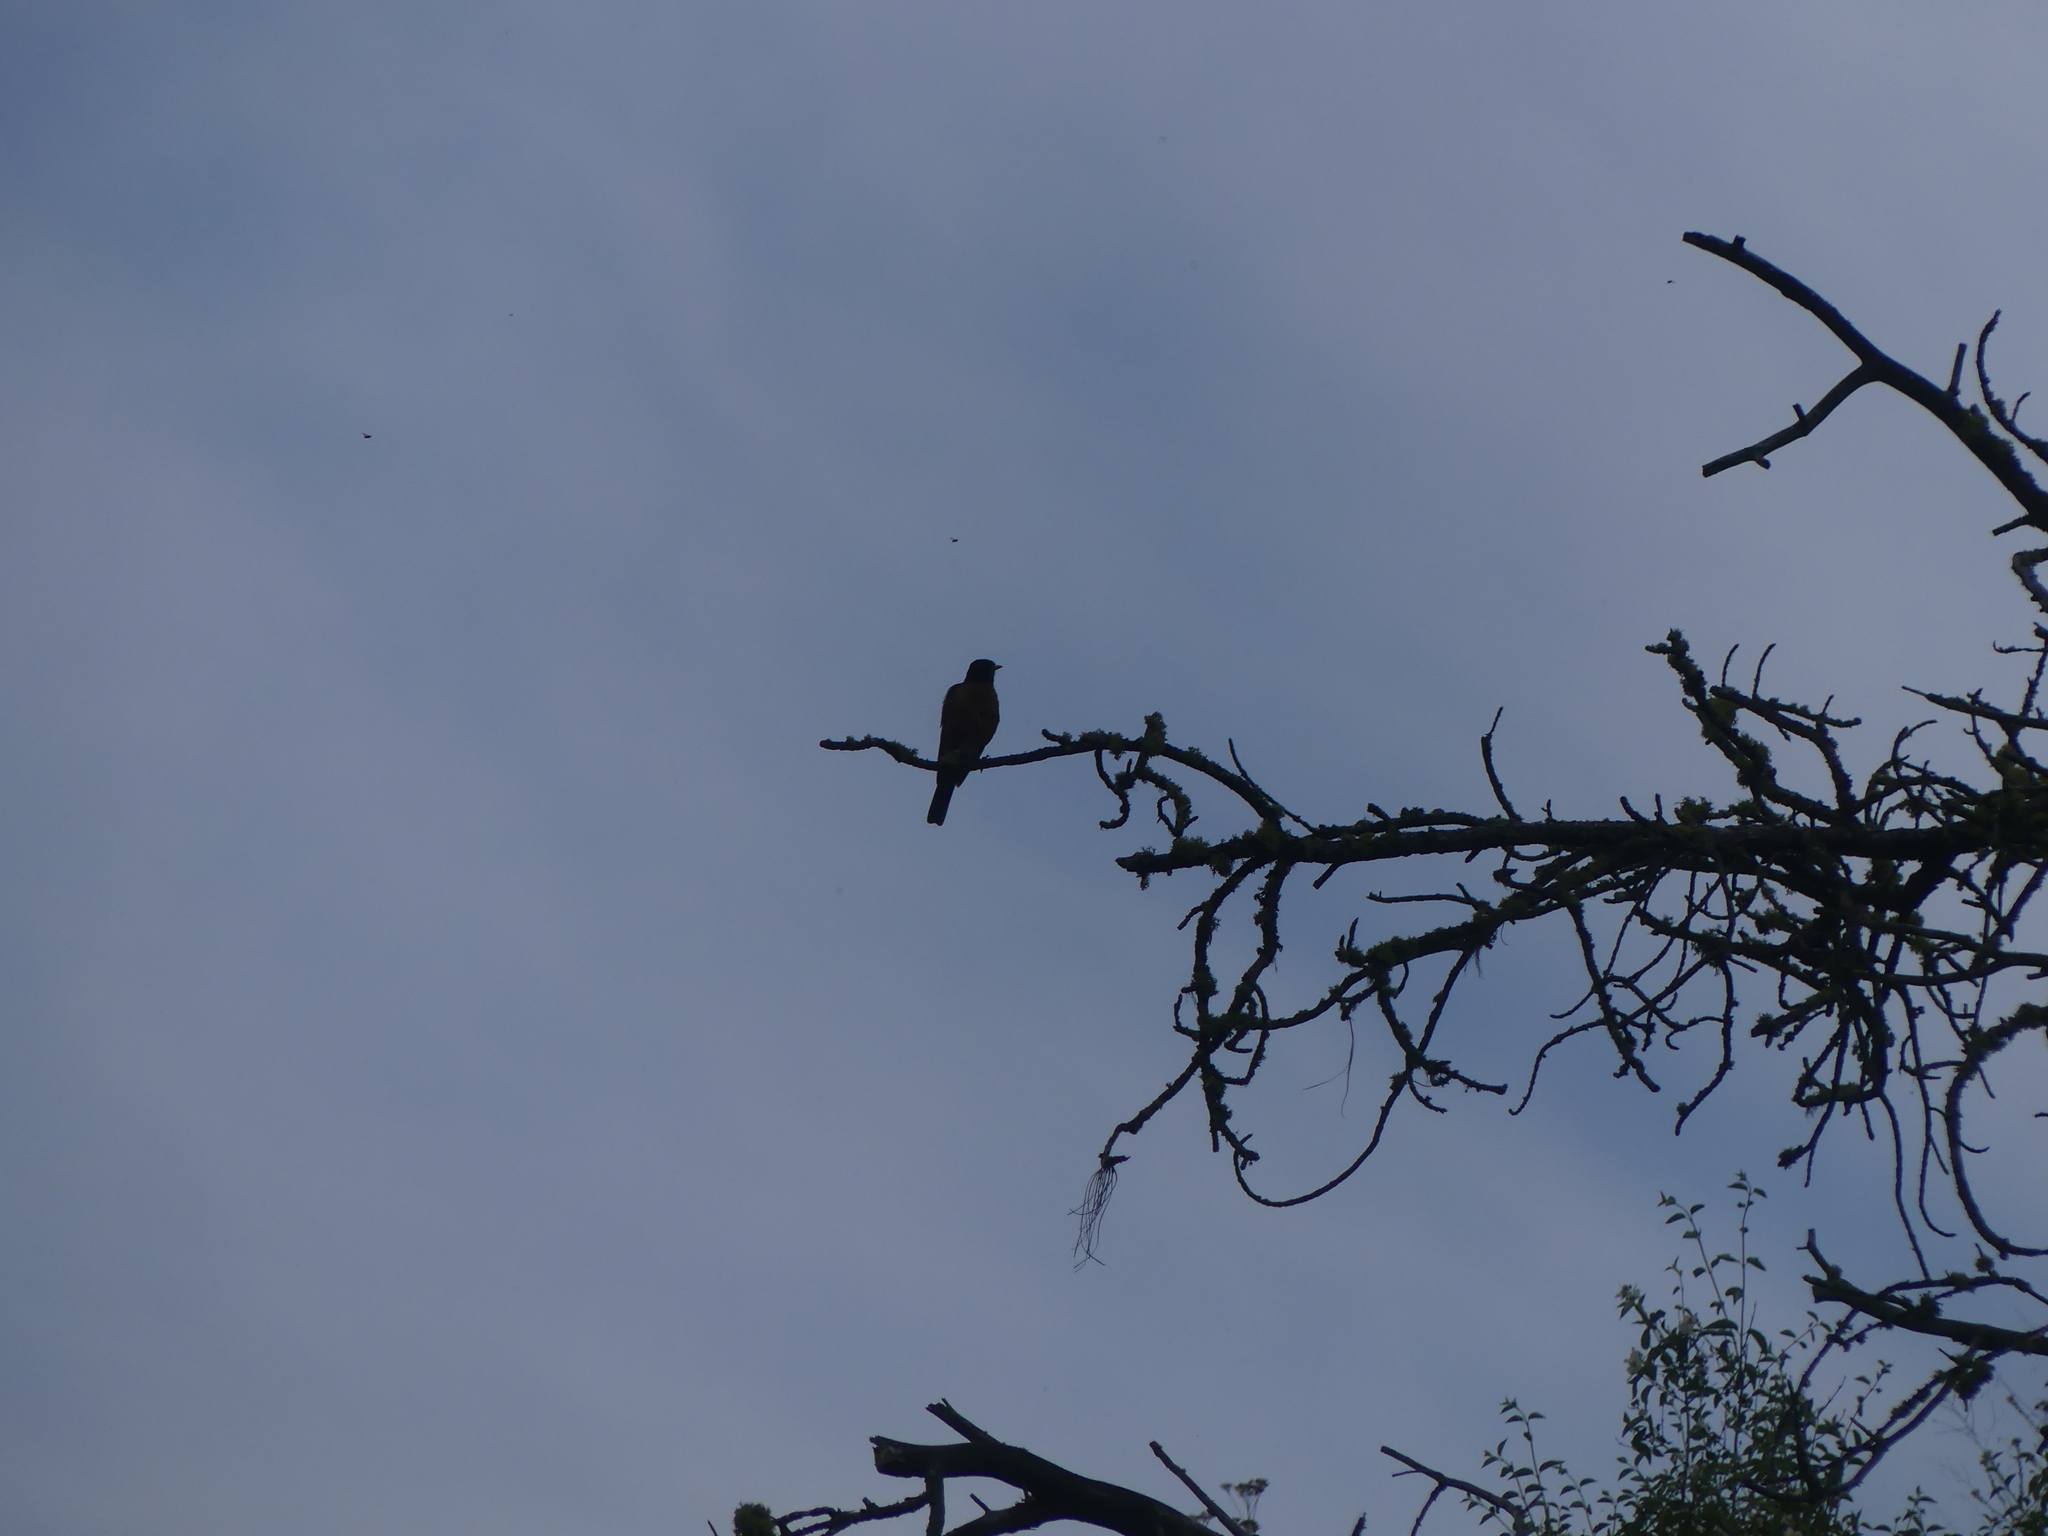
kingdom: Animalia
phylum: Chordata
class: Aves
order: Passeriformes
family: Turdidae
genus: Turdus
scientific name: Turdus migratorius
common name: American robin
